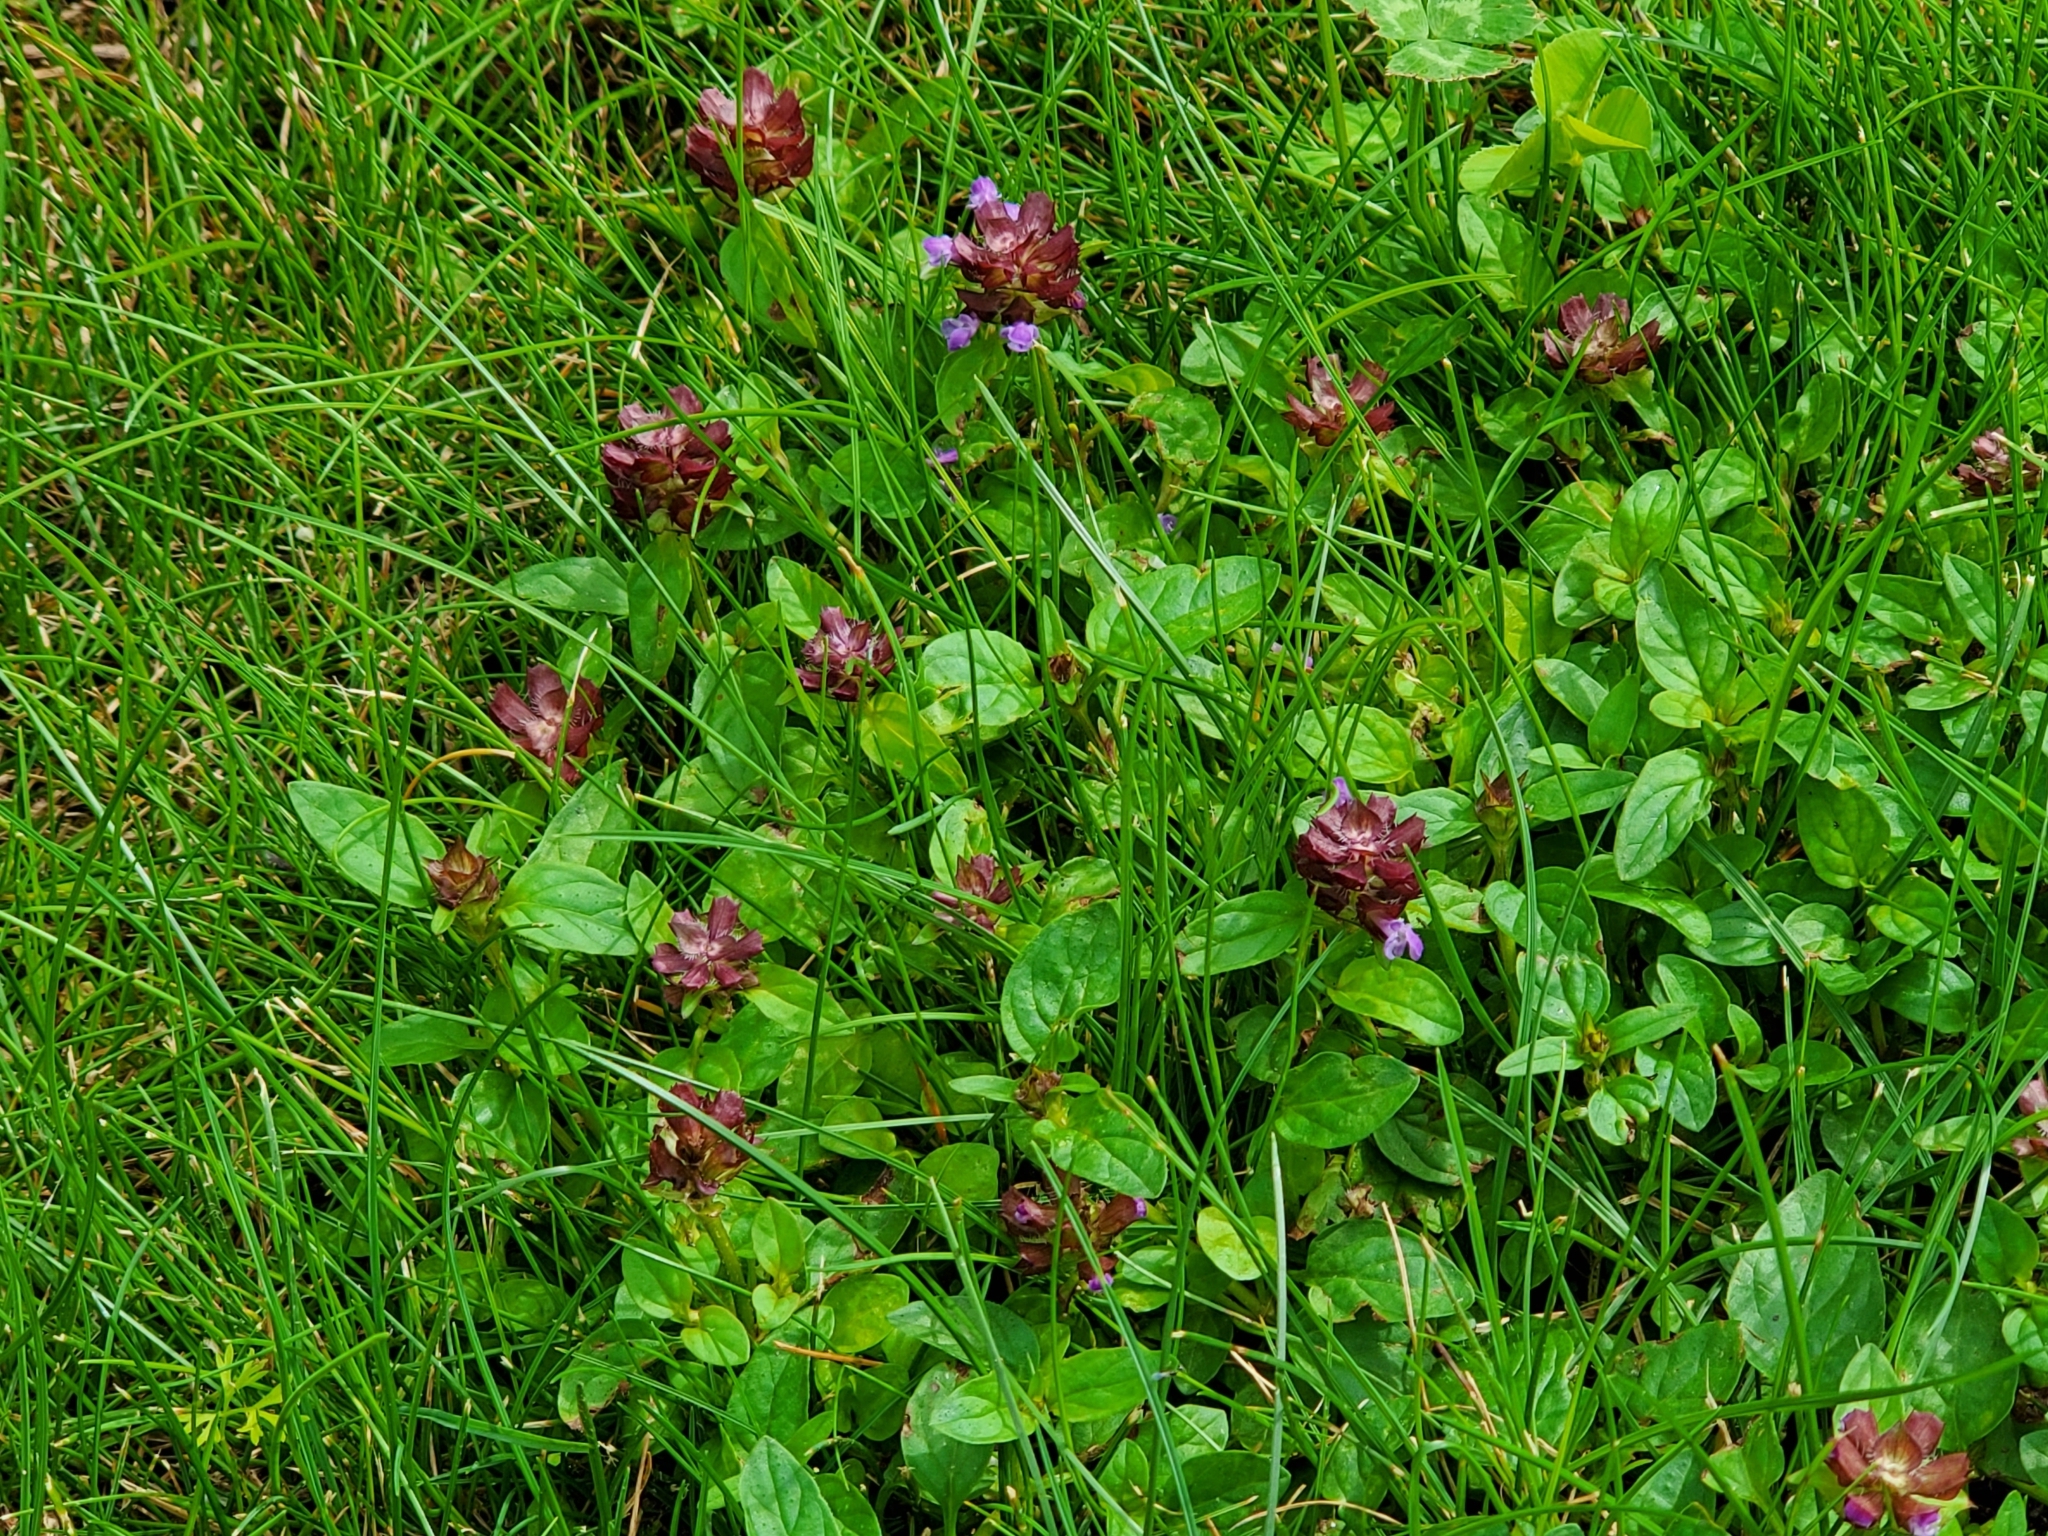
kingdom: Plantae
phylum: Tracheophyta
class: Magnoliopsida
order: Lamiales
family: Lamiaceae
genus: Prunella
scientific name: Prunella vulgaris
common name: Heal-all
